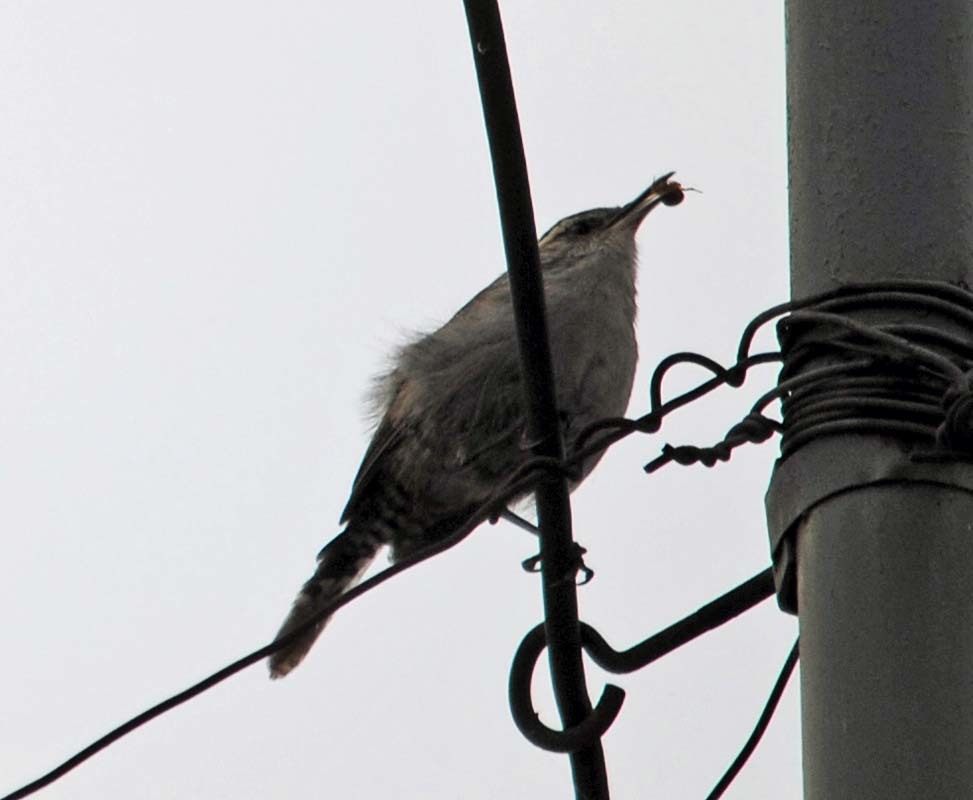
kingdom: Animalia
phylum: Chordata
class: Aves
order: Passeriformes
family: Troglodytidae
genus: Thryomanes
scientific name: Thryomanes bewickii
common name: Bewick's wren
